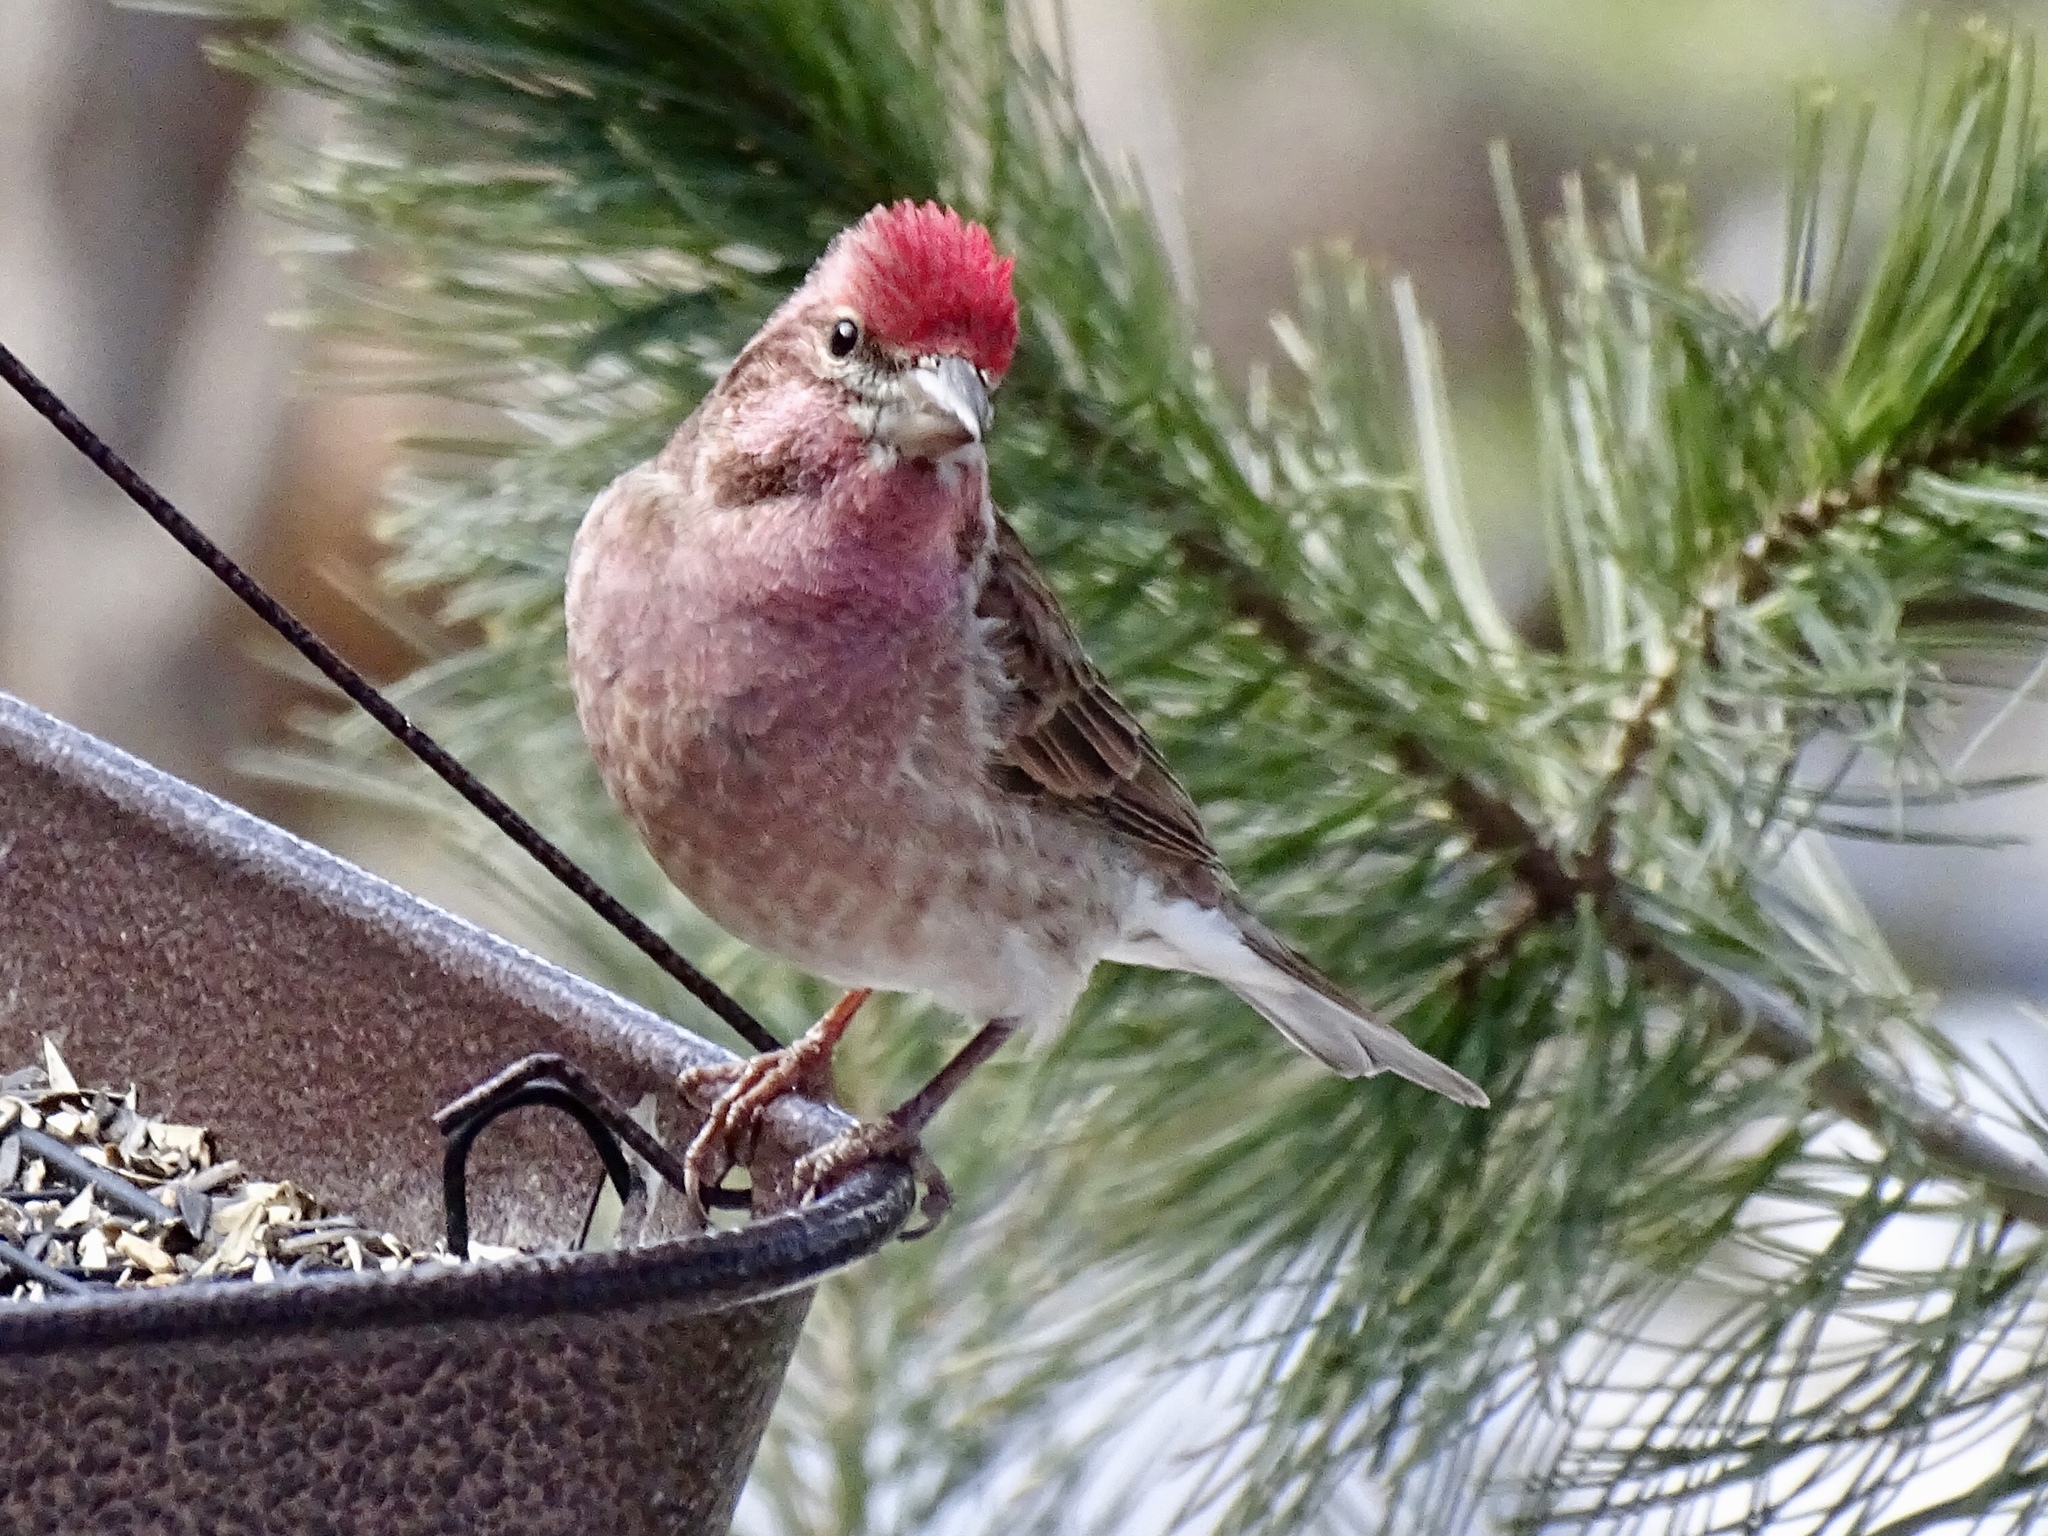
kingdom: Animalia
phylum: Chordata
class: Aves
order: Passeriformes
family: Fringillidae
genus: Haemorhous
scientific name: Haemorhous cassinii
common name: Cassin's finch
